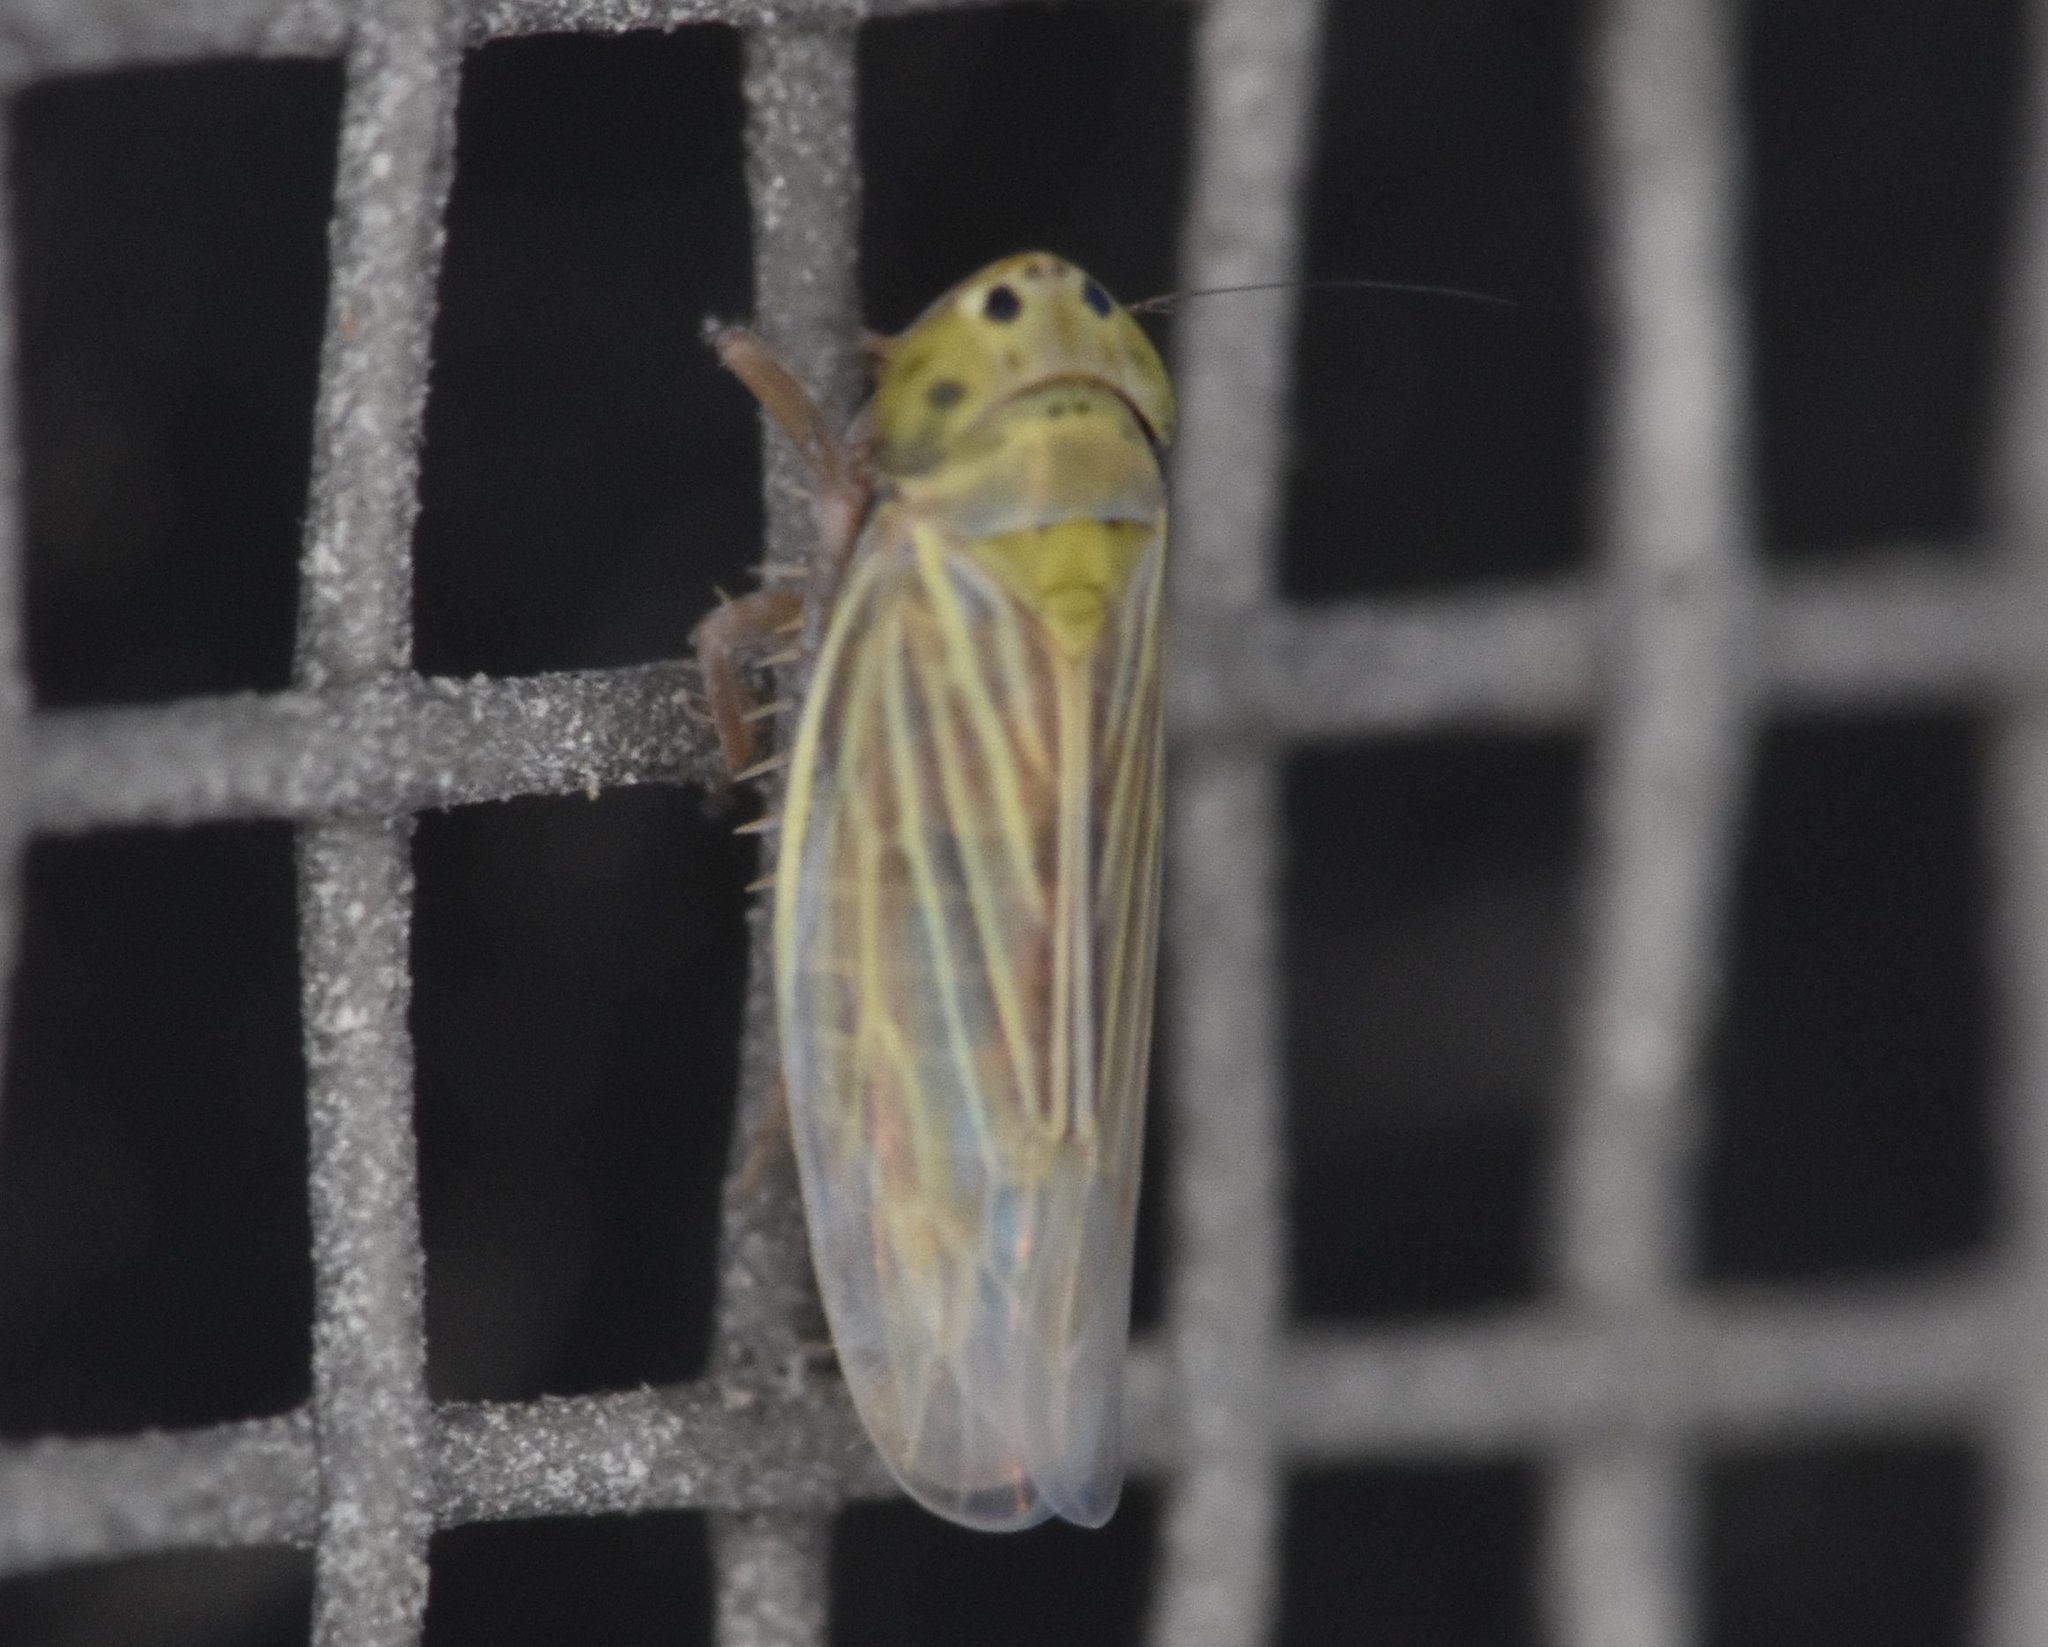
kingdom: Animalia
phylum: Arthropoda
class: Insecta
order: Hemiptera
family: Cicadellidae
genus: Graminella
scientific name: Graminella cognita
